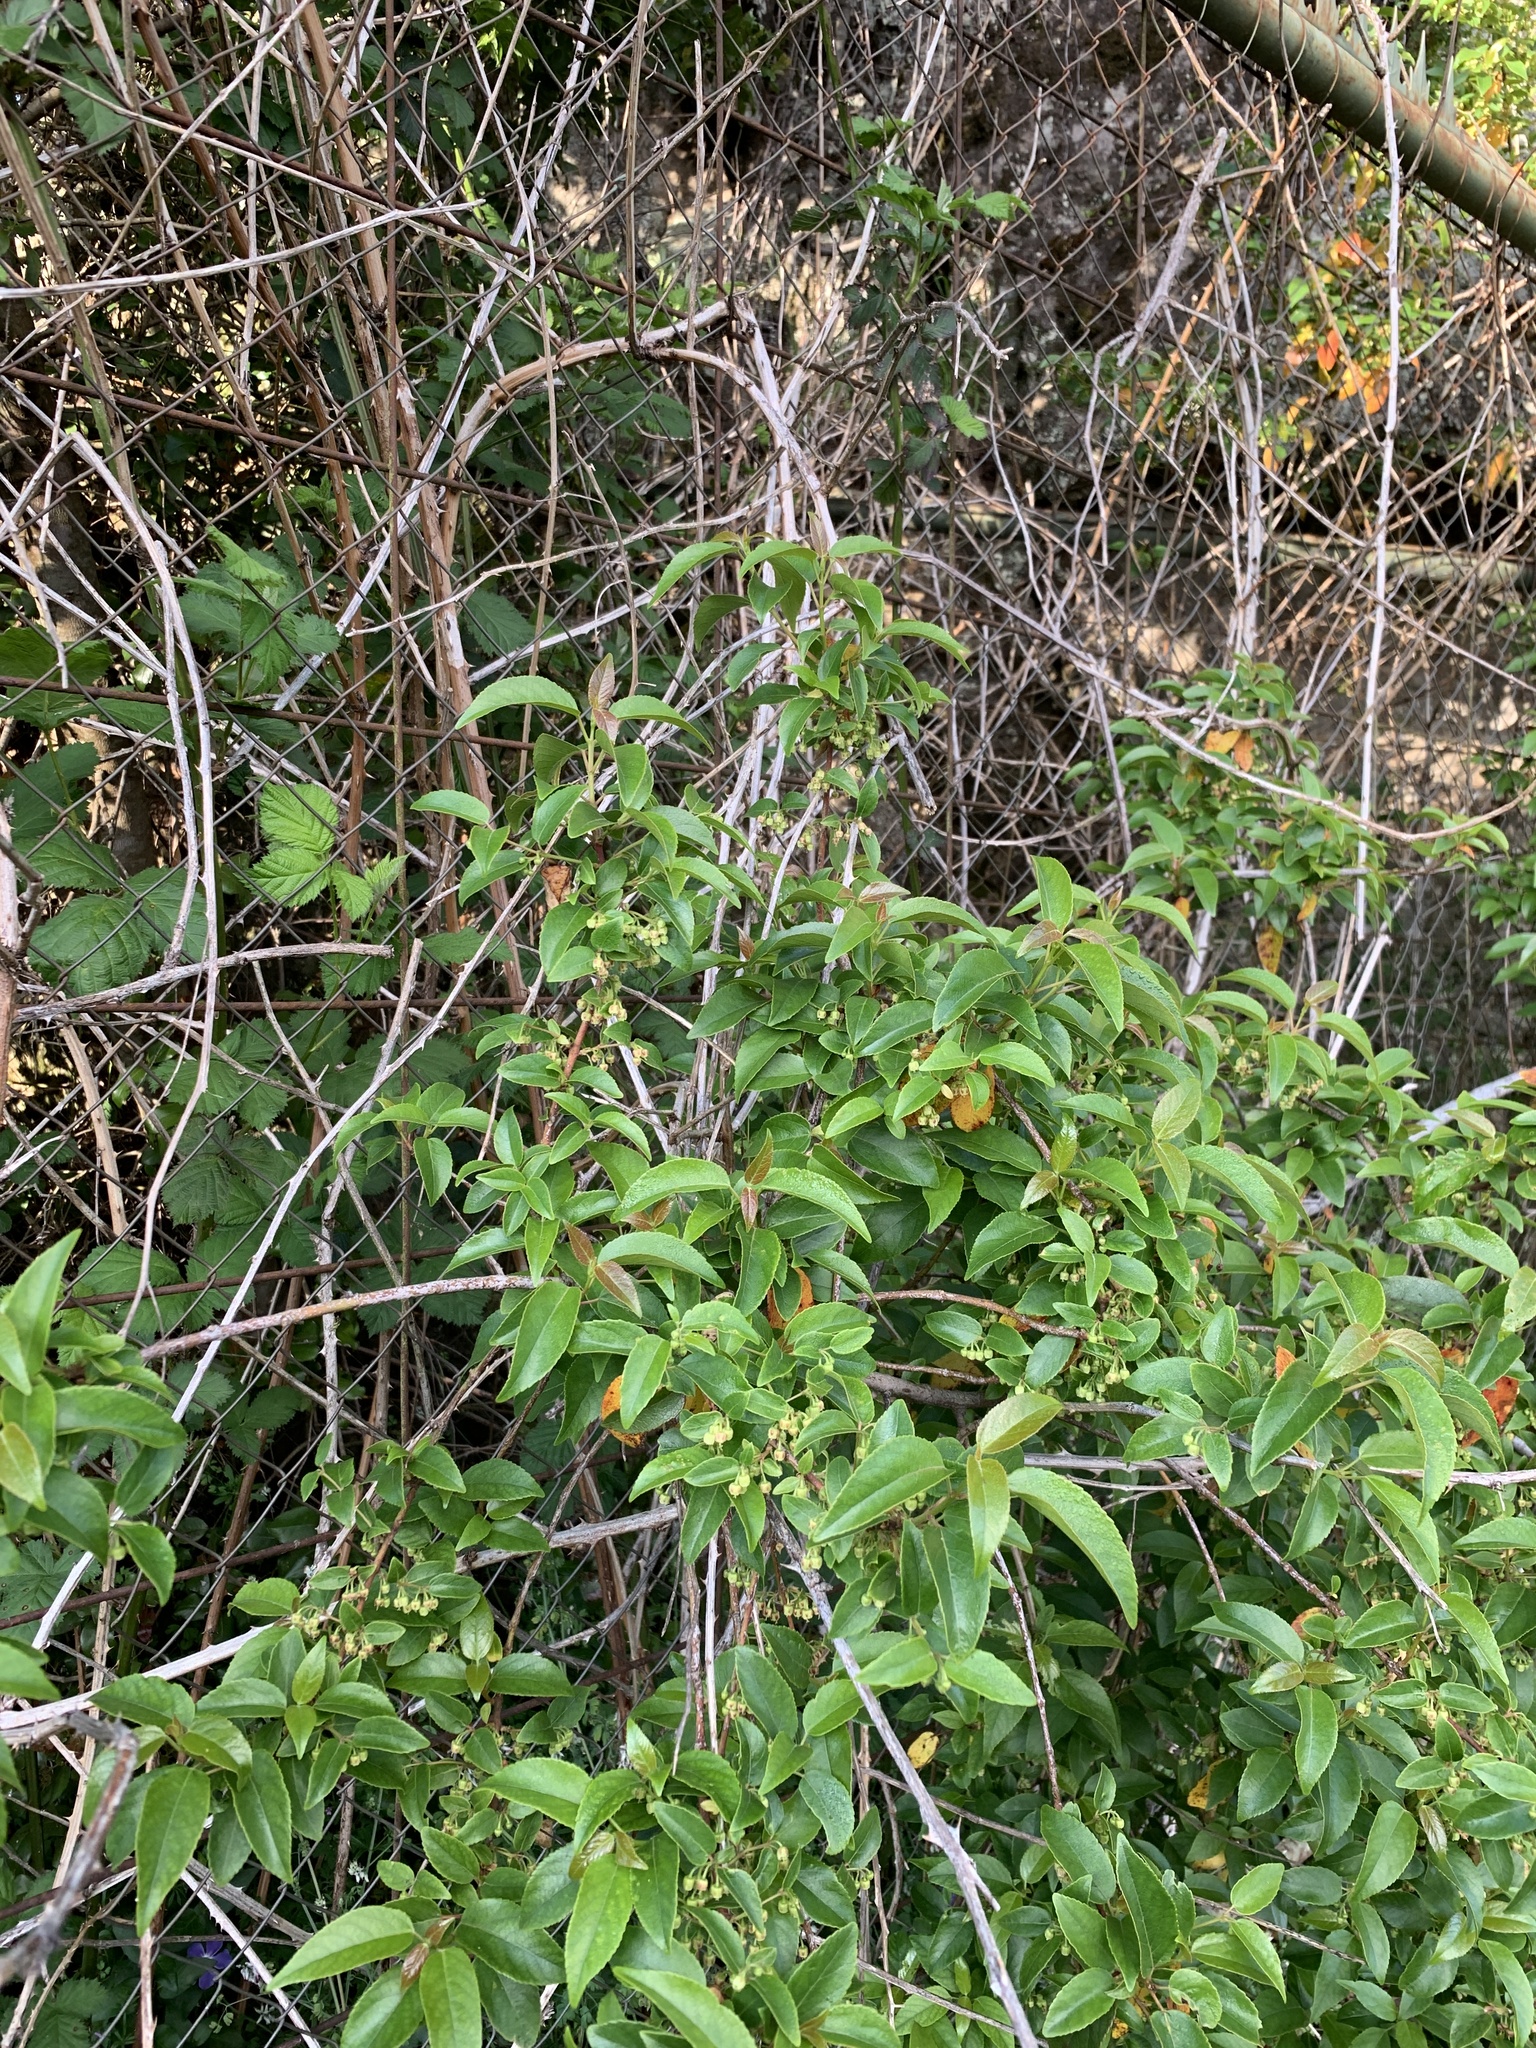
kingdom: Plantae
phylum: Tracheophyta
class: Magnoliopsida
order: Oxalidales
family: Elaeocarpaceae
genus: Aristotelia
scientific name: Aristotelia chilensis
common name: Maquei
